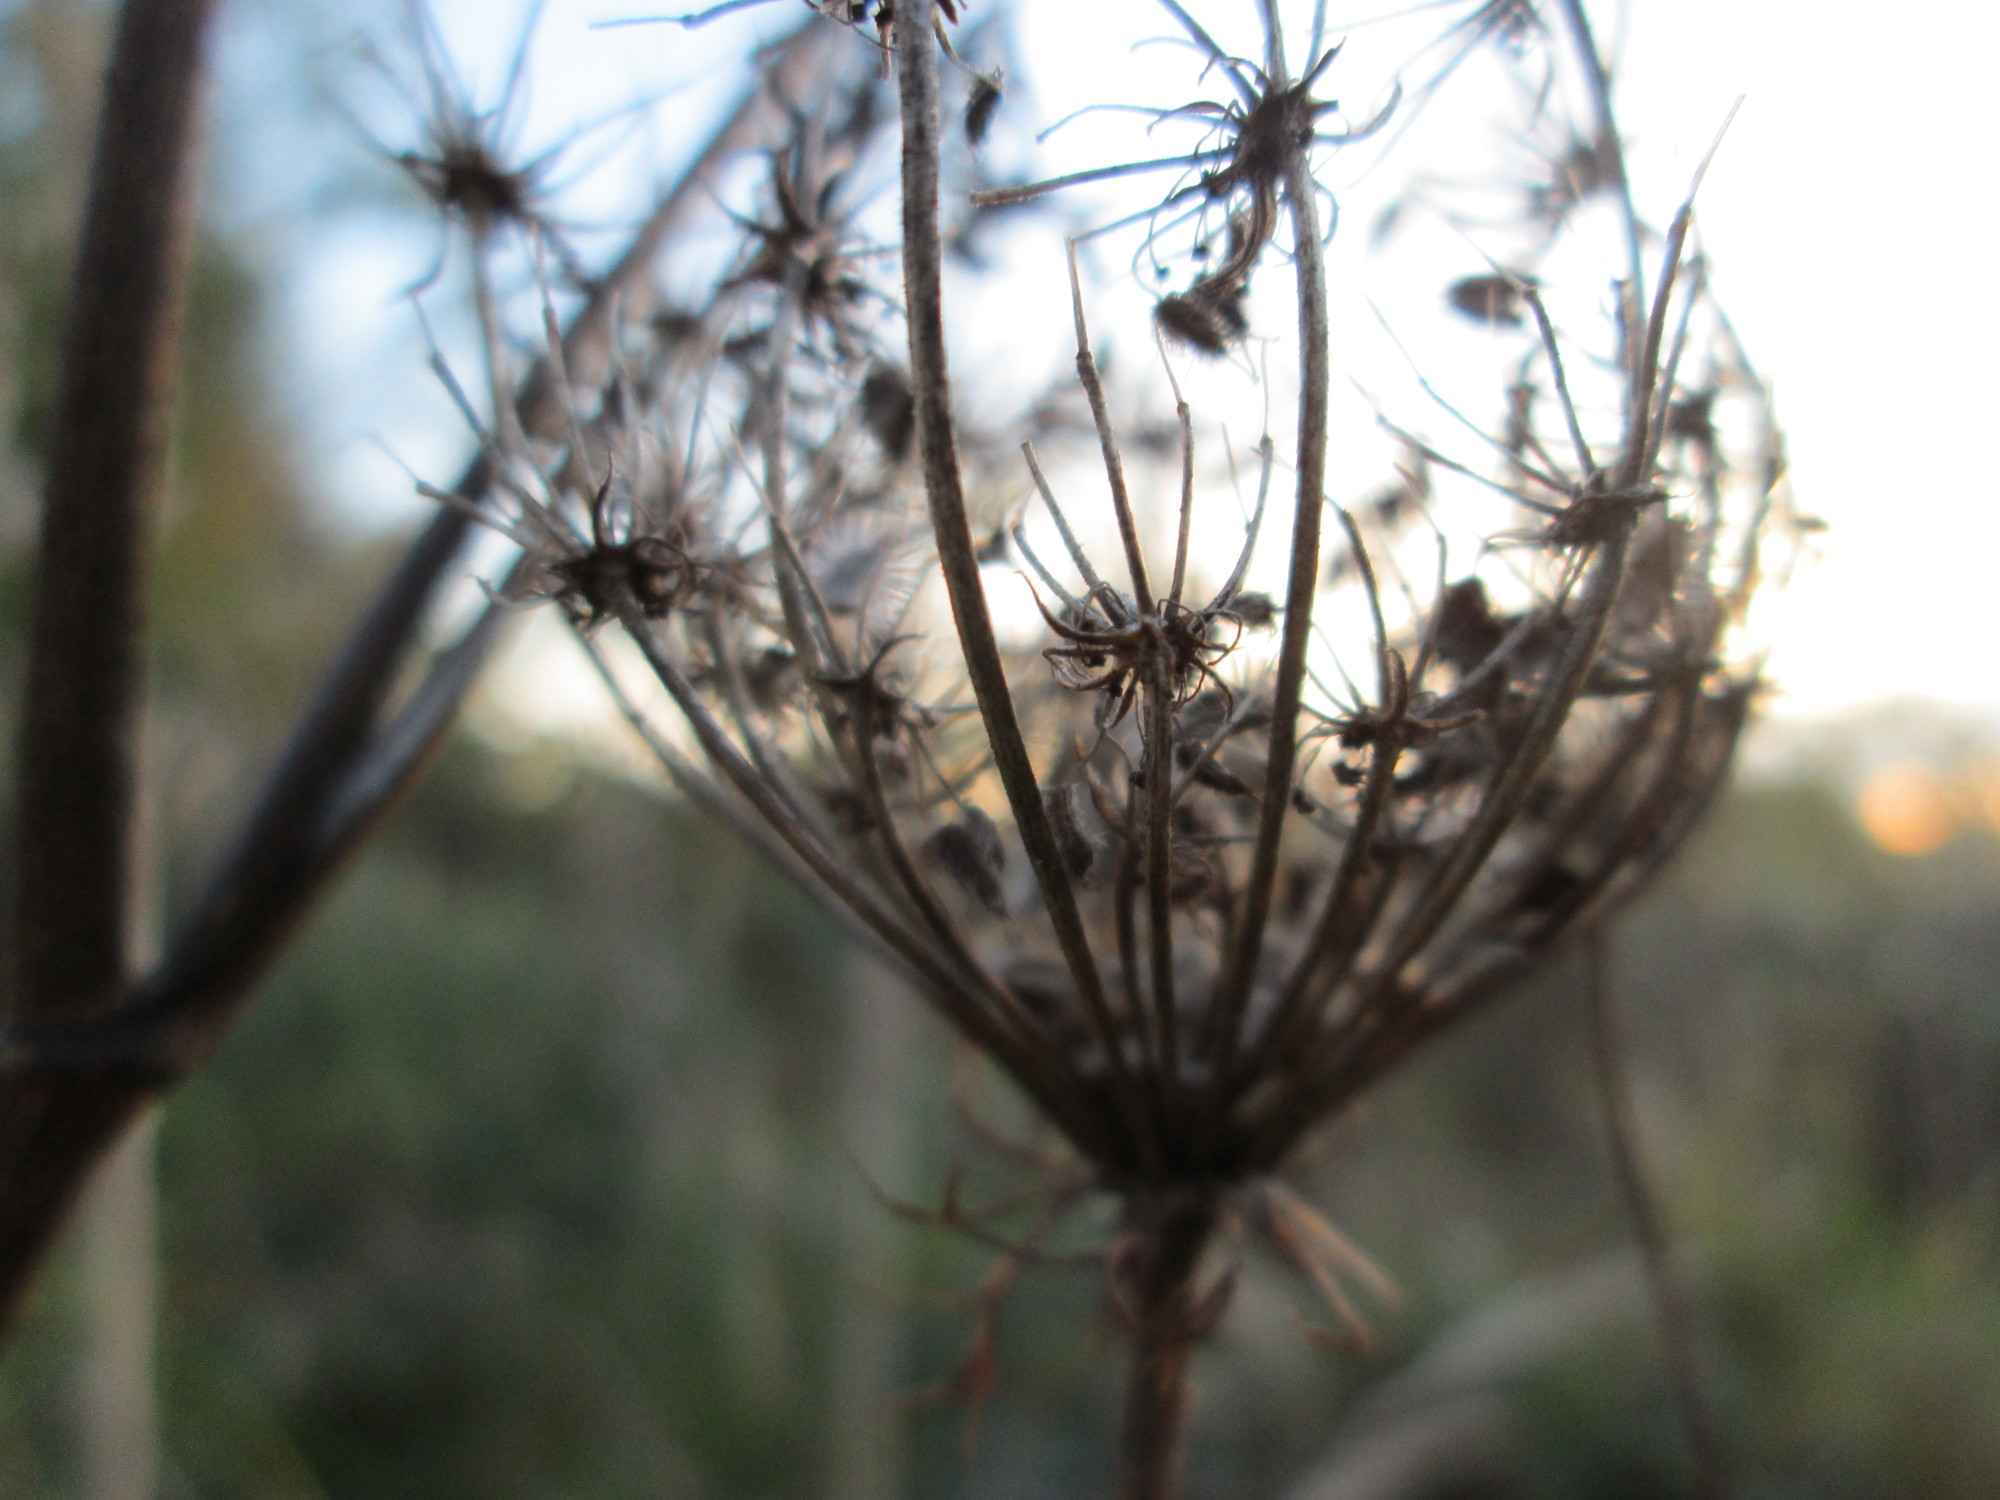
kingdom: Plantae
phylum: Tracheophyta
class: Magnoliopsida
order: Apiales
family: Apiaceae
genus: Daucus
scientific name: Daucus carota
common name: Wild carrot
